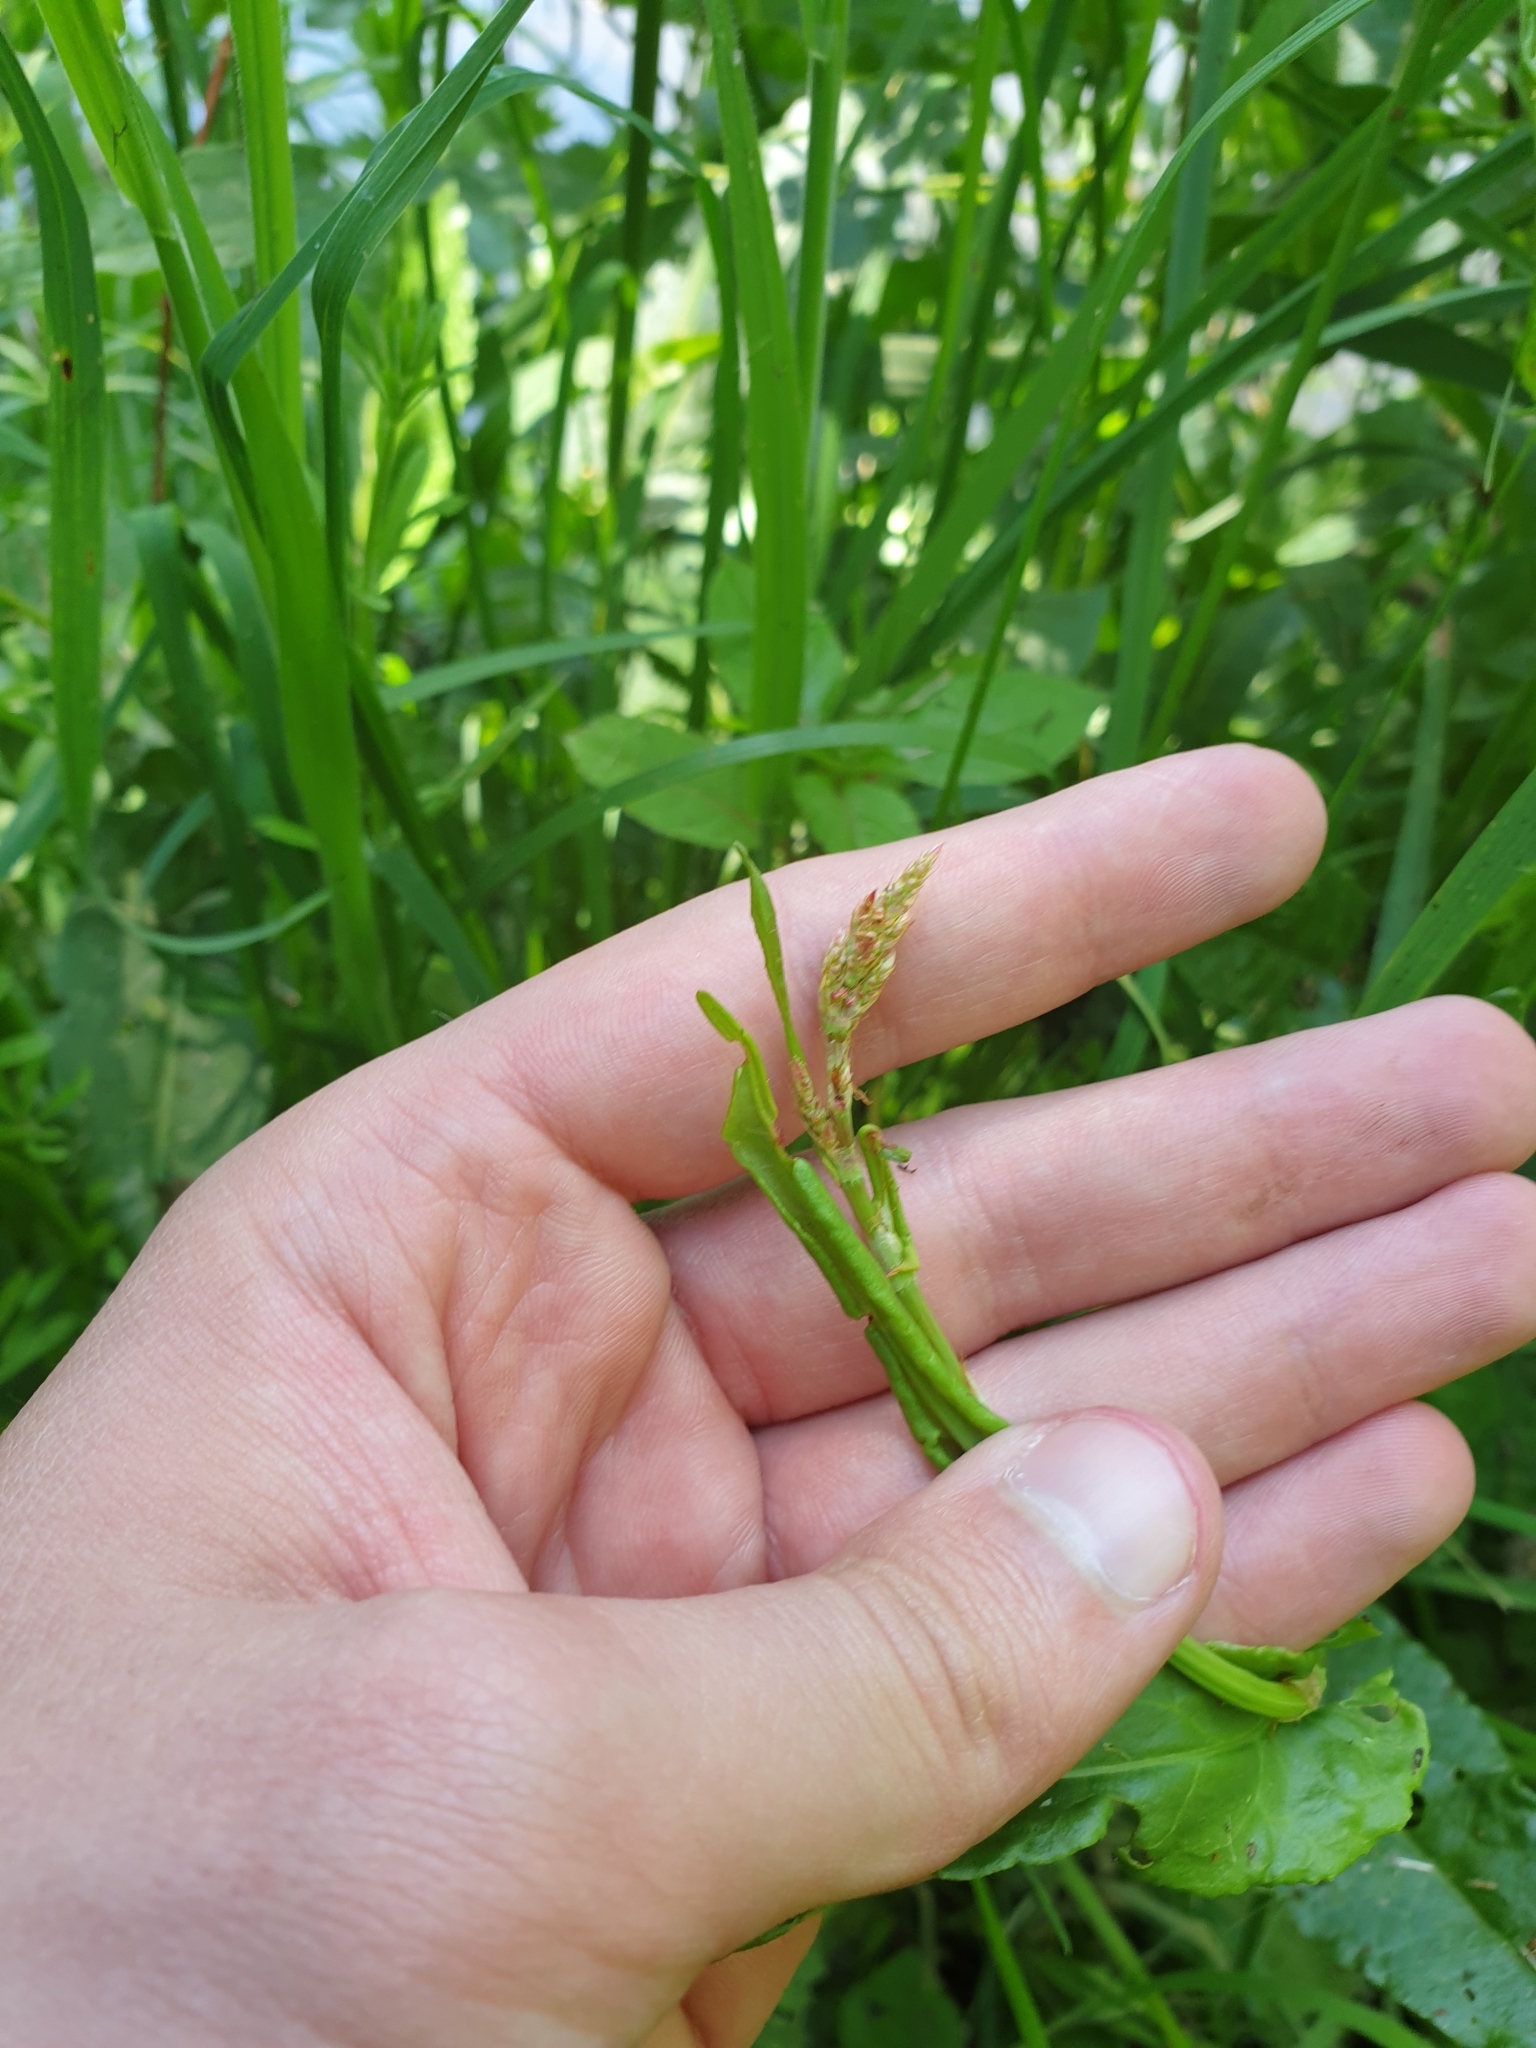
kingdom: Plantae
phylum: Tracheophyta
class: Magnoliopsida
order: Caryophyllales
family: Polygonaceae
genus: Rumex
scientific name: Rumex acetosa
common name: Garden sorrel
